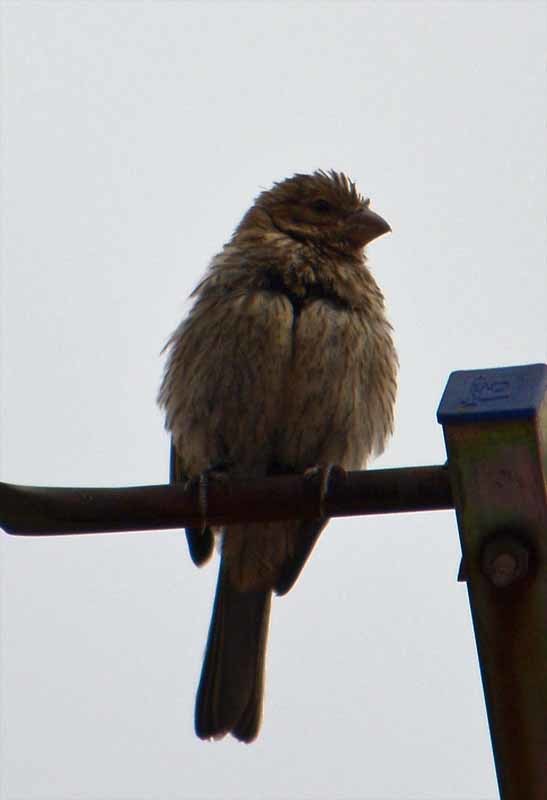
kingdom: Animalia
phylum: Chordata
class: Aves
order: Passeriformes
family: Fringillidae
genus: Haemorhous
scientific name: Haemorhous mexicanus
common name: House finch
